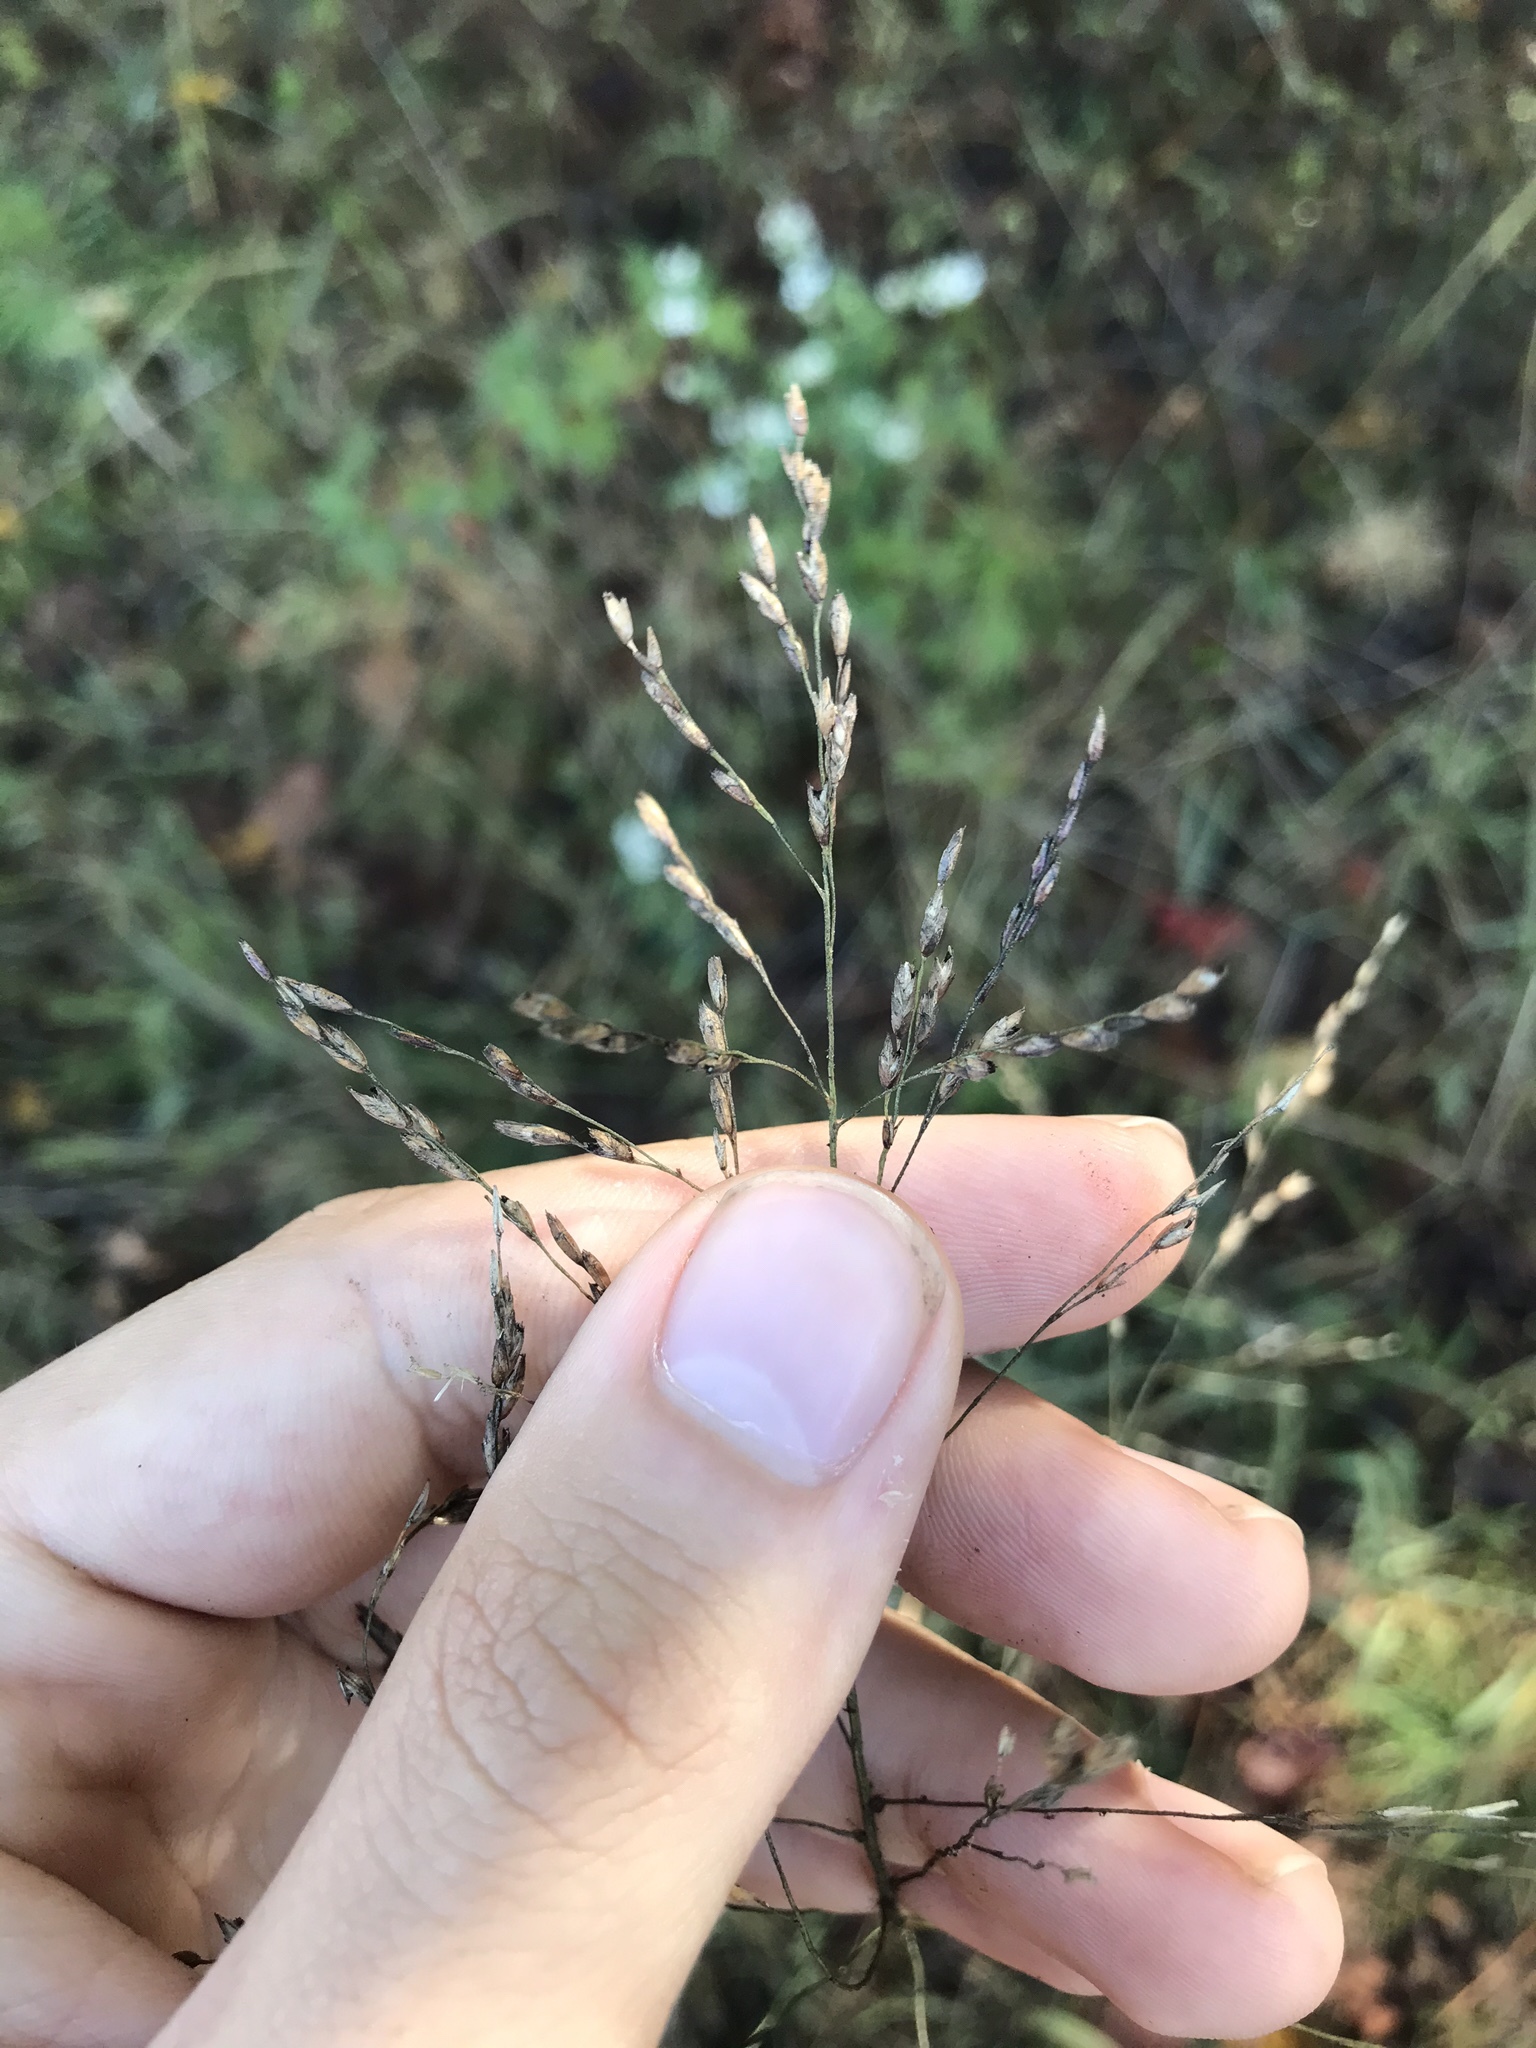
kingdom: Plantae
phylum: Tracheophyta
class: Liliopsida
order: Poales
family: Poaceae
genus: Tridens
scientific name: Tridens flavus
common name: Purpletop
